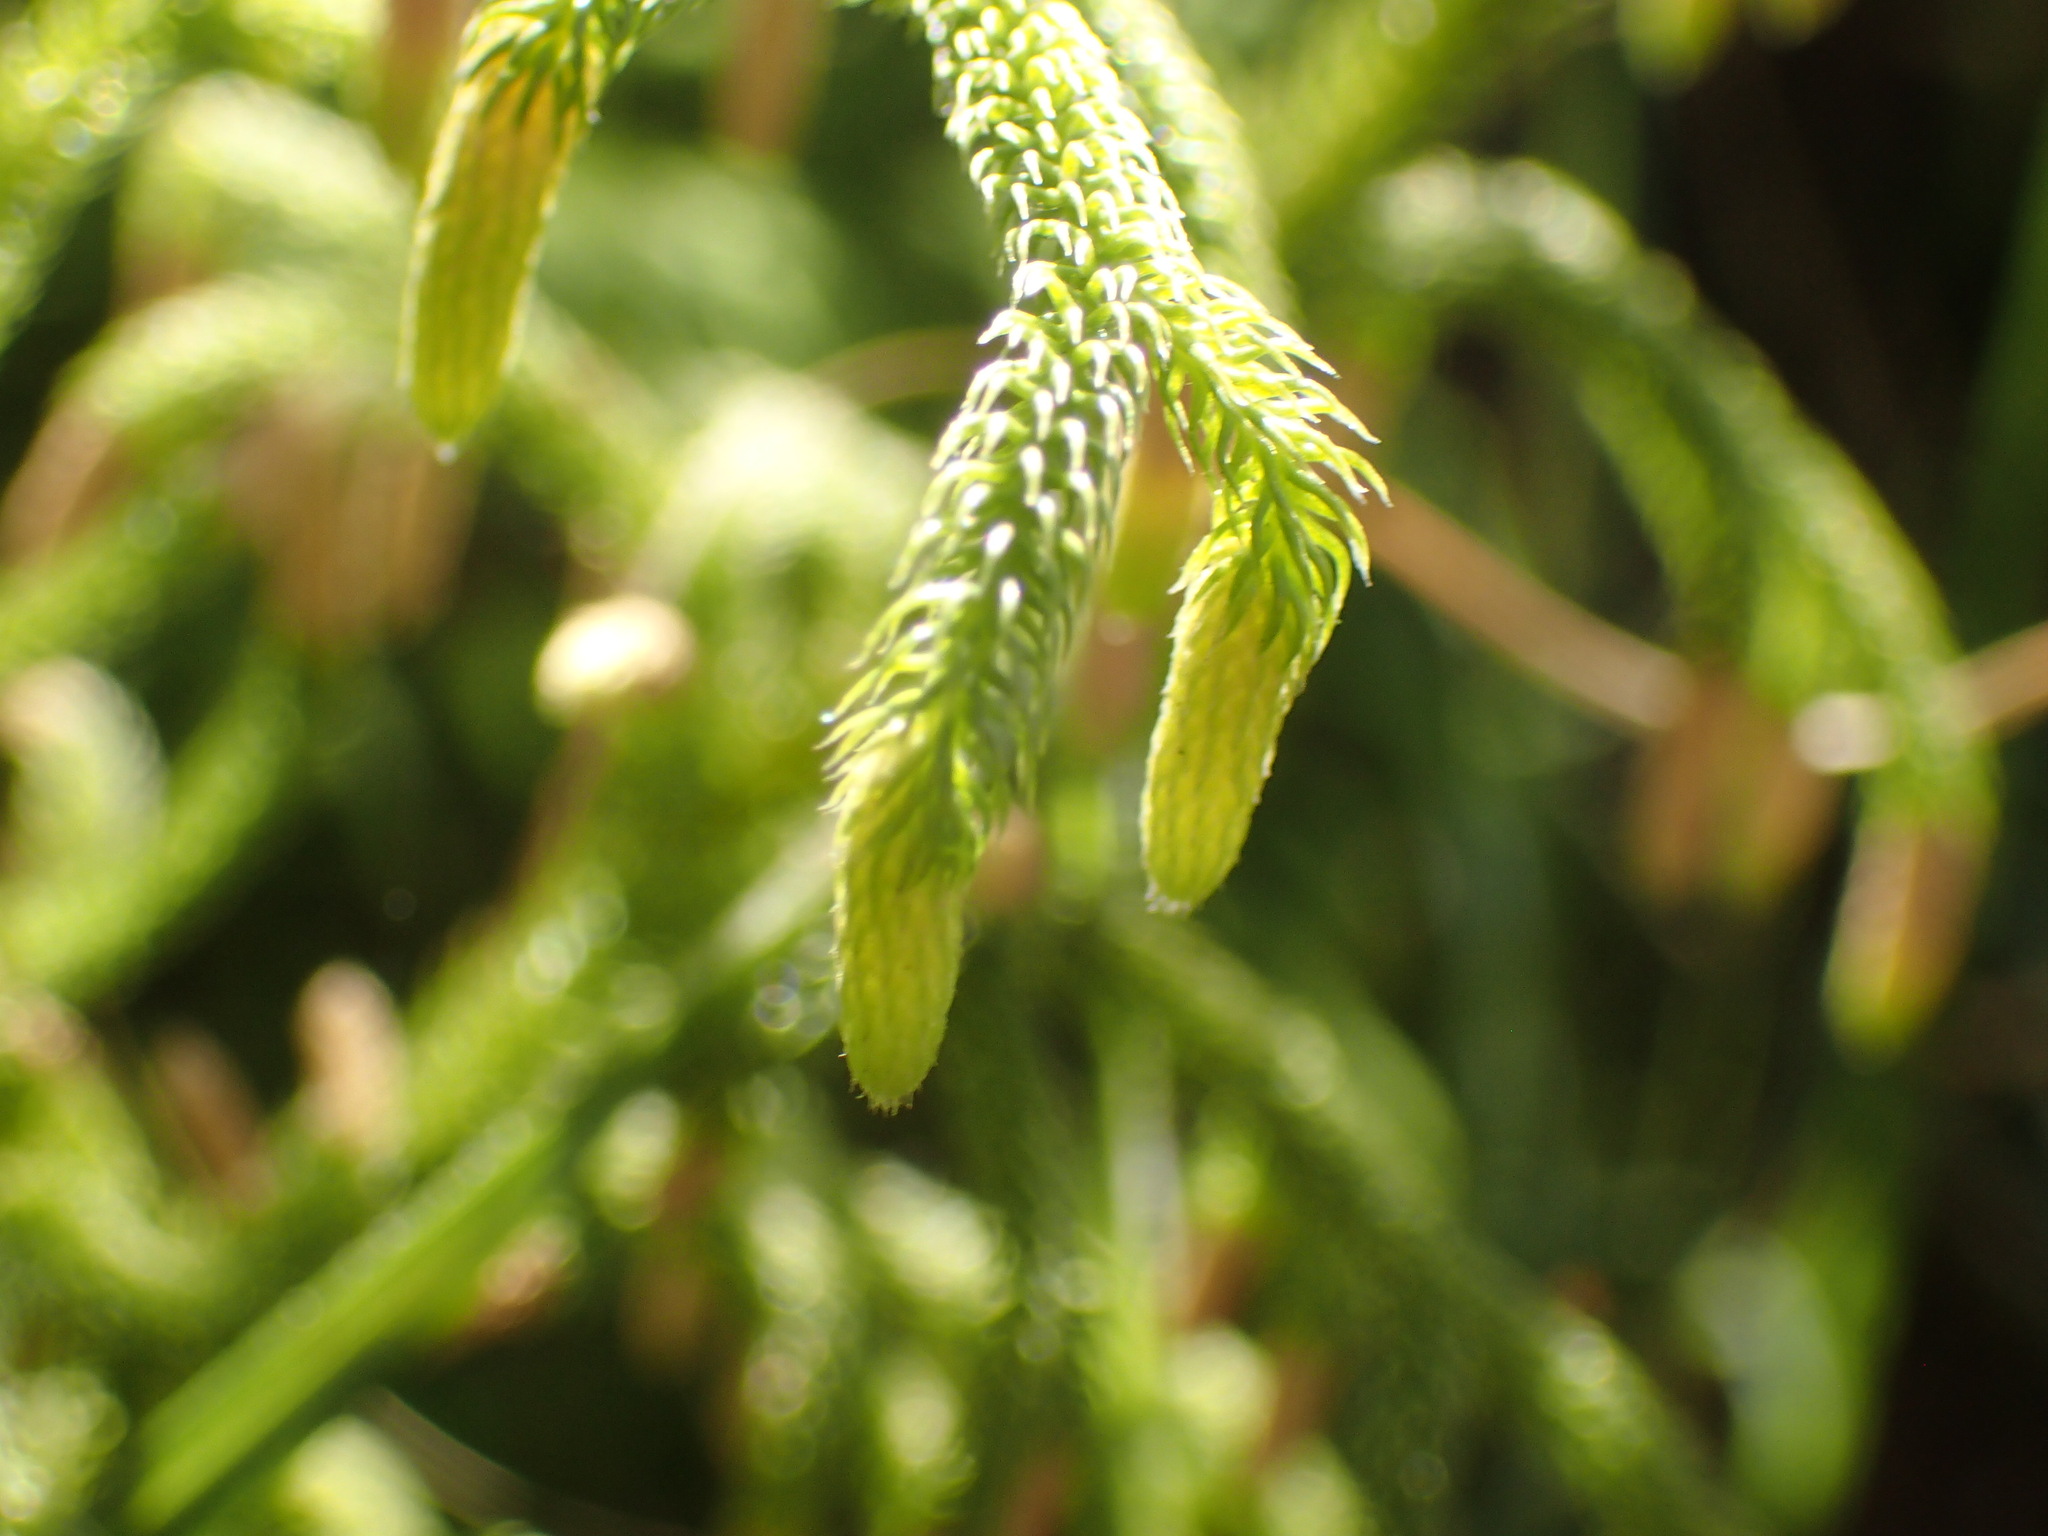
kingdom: Plantae
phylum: Tracheophyta
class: Lycopodiopsida
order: Lycopodiales
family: Lycopodiaceae
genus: Palhinhaea
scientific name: Palhinhaea cernua
